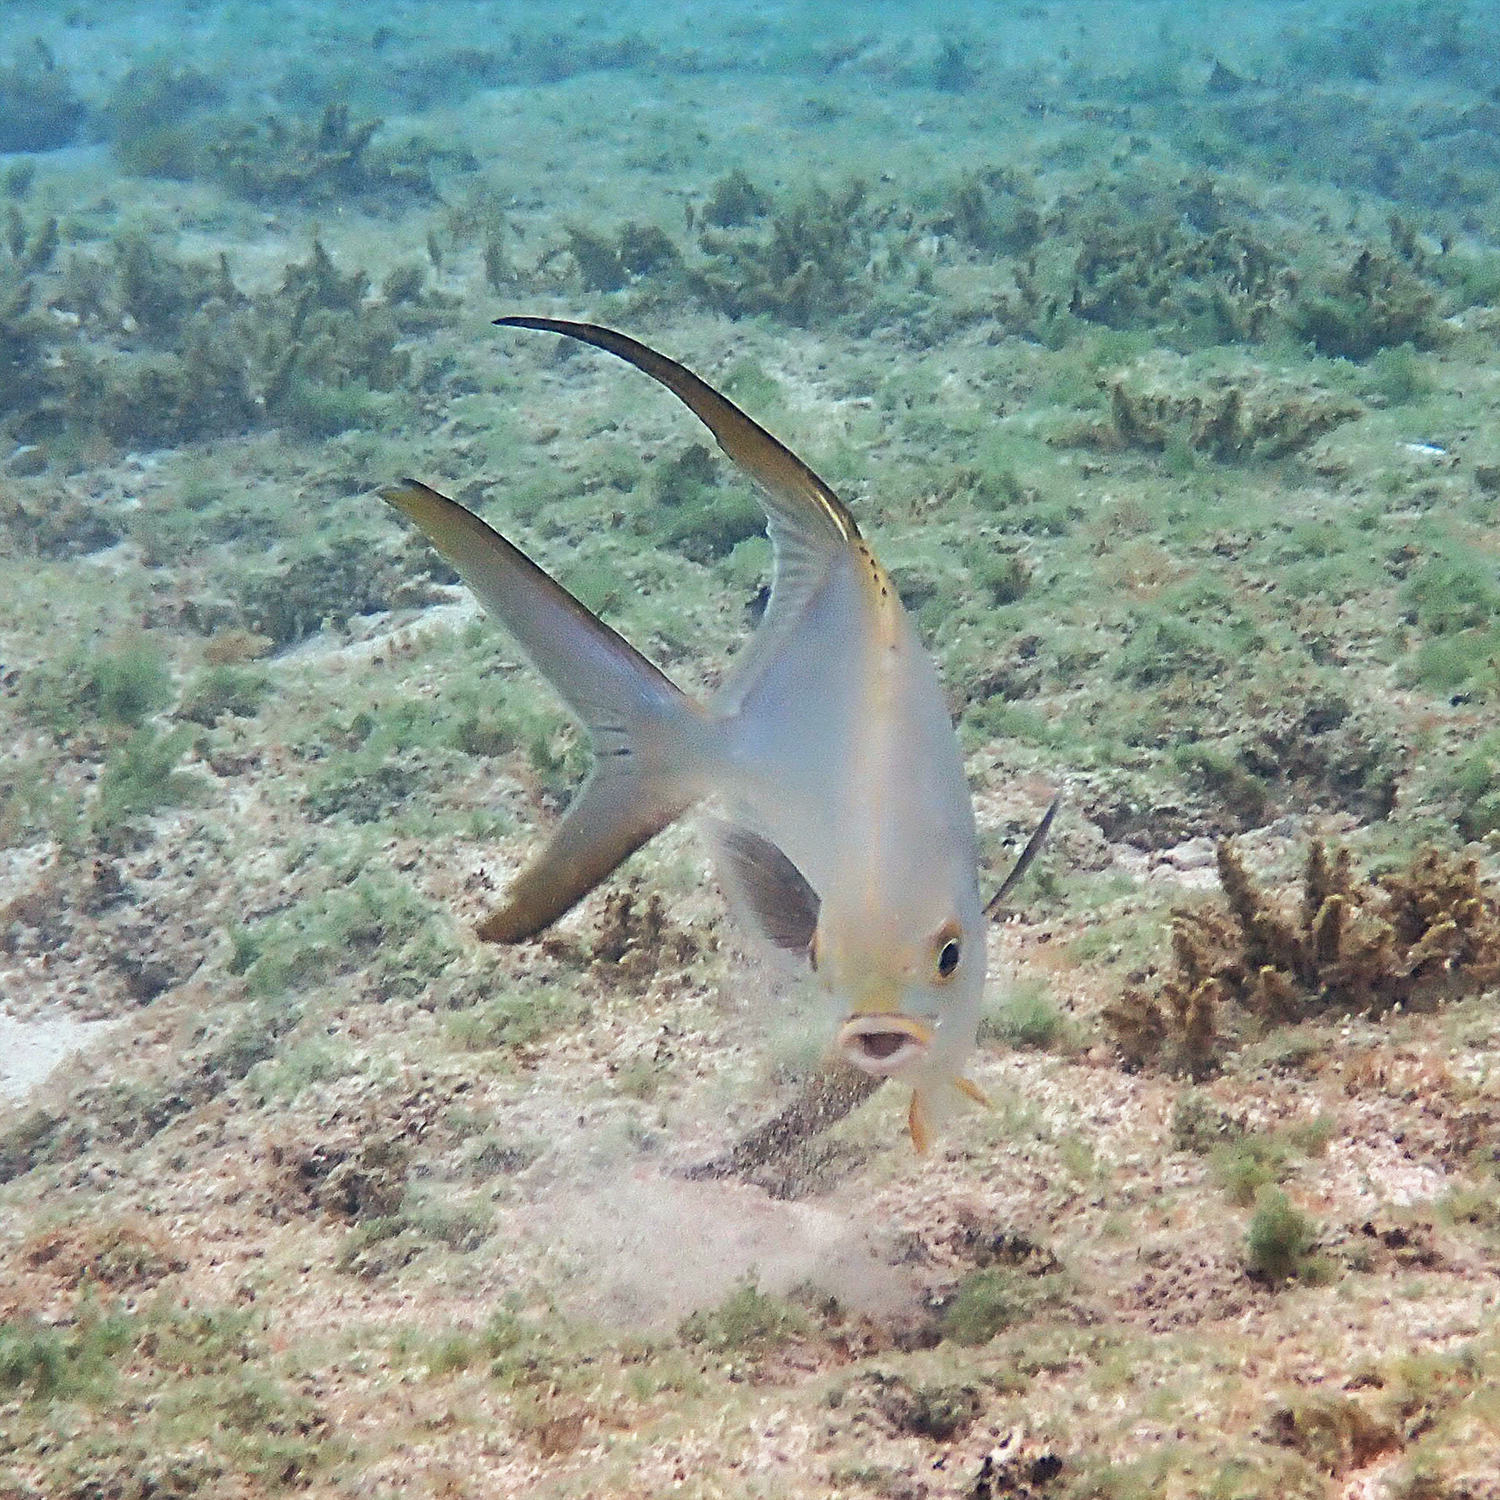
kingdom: Animalia
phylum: Chordata
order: Perciformes
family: Carangidae
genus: Trachinotus
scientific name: Trachinotus blochii
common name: Snubnose pompano
